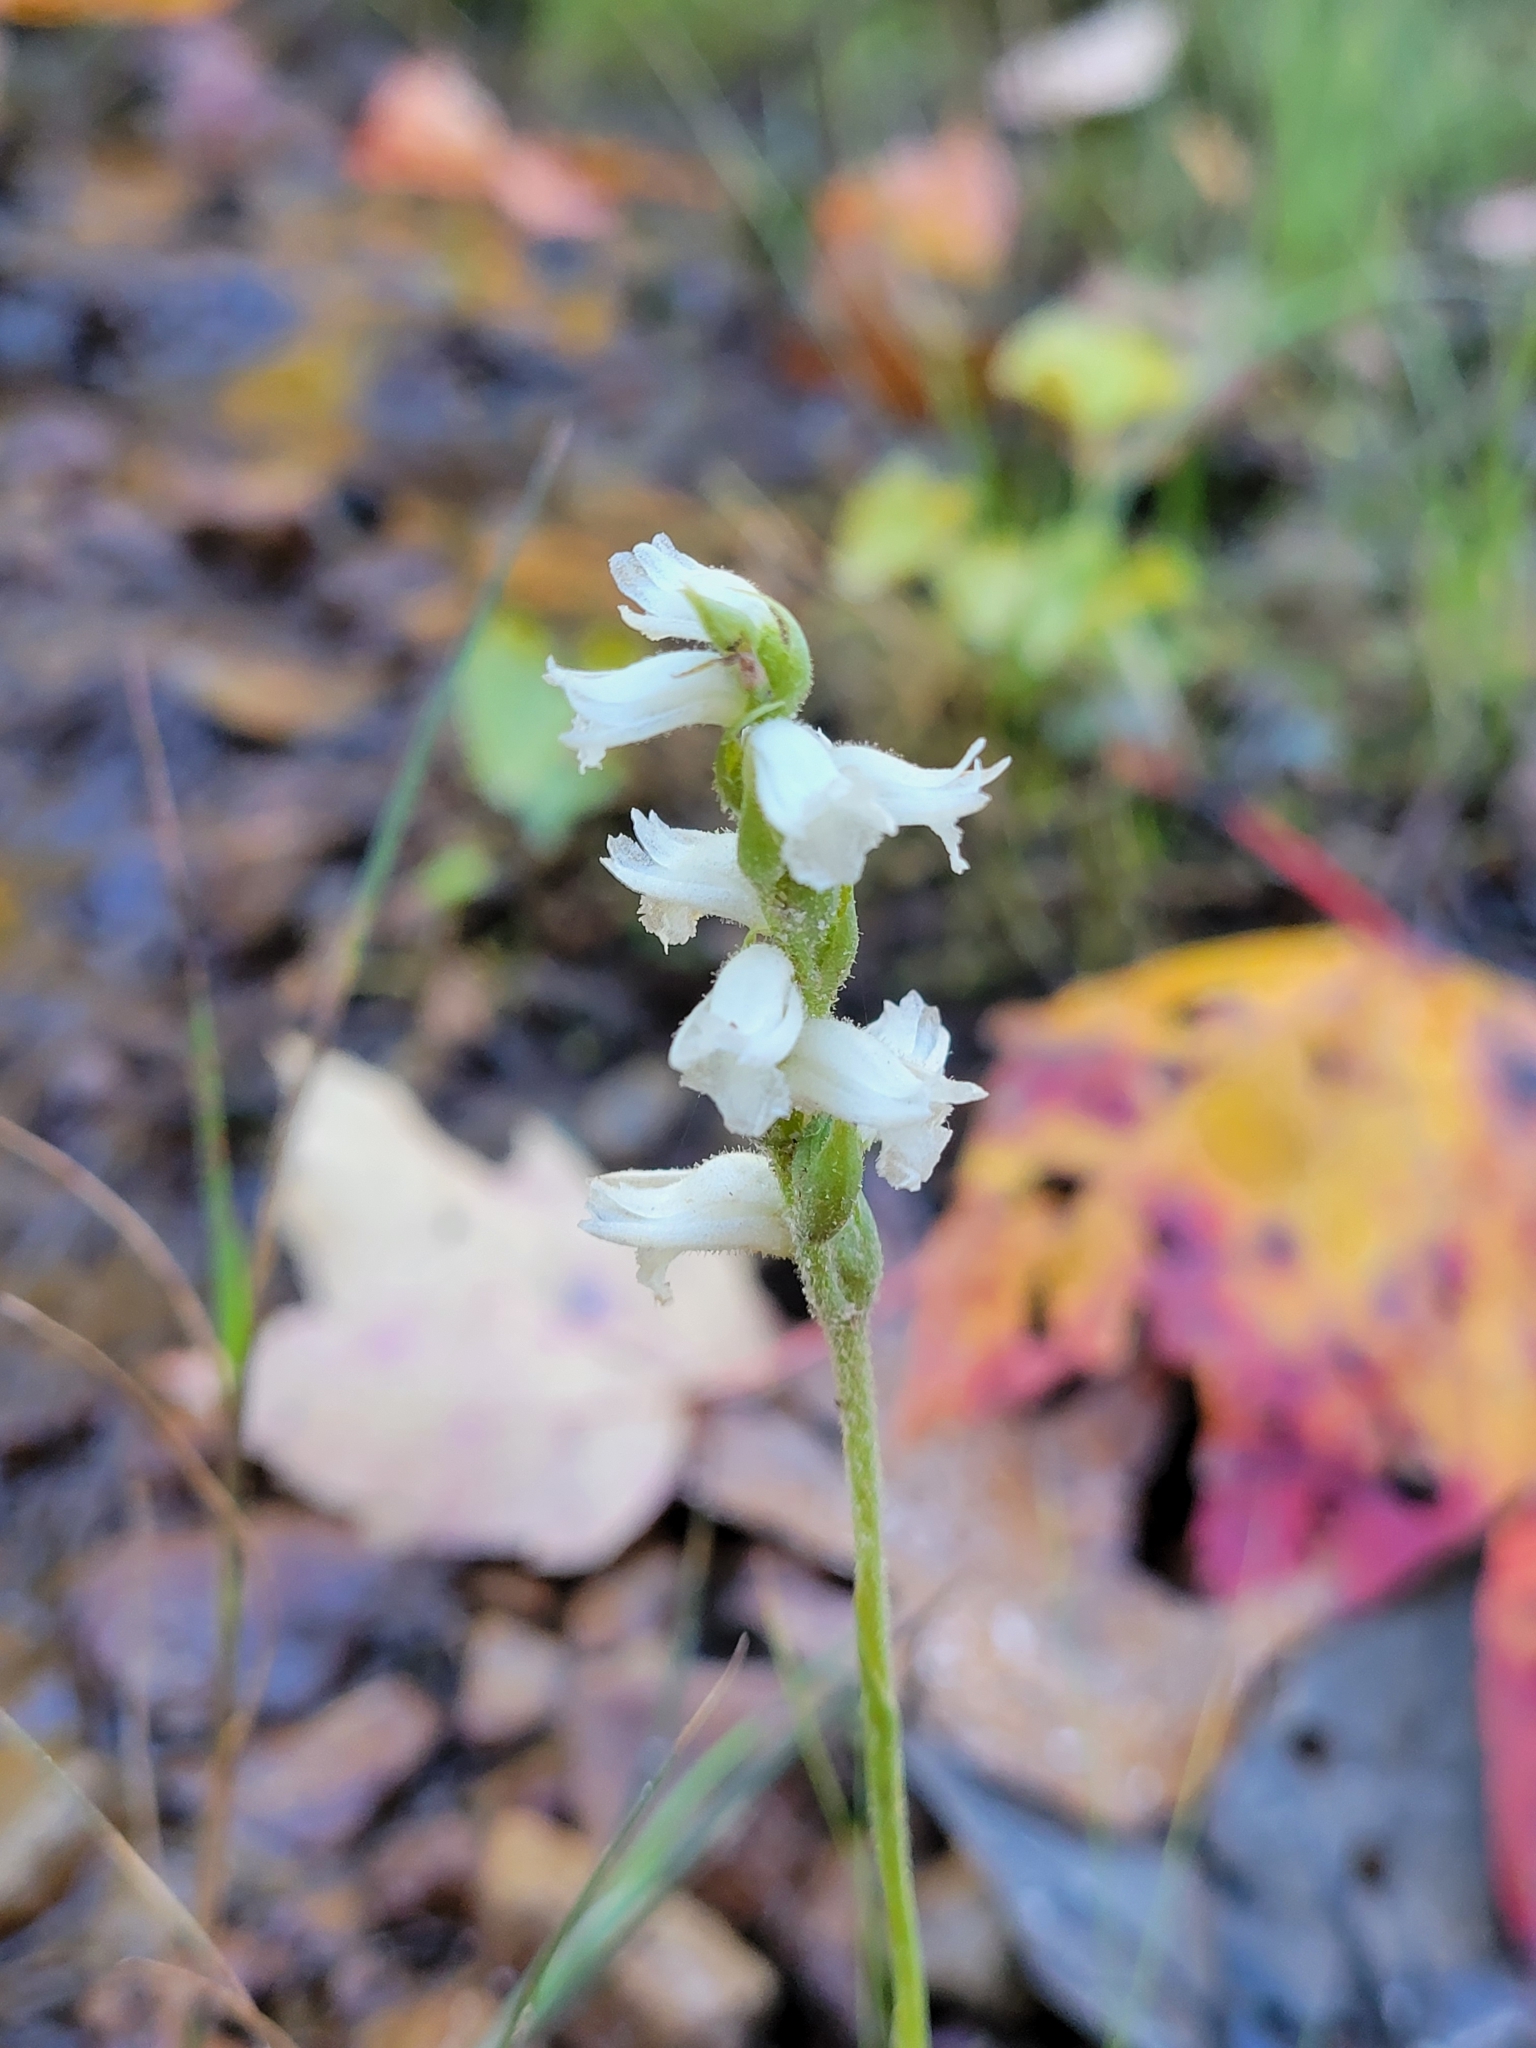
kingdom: Plantae
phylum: Tracheophyta
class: Liliopsida
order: Asparagales
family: Orchidaceae
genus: Spiranthes
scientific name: Spiranthes arcisepala
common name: Appalachian ladies'-tresses
